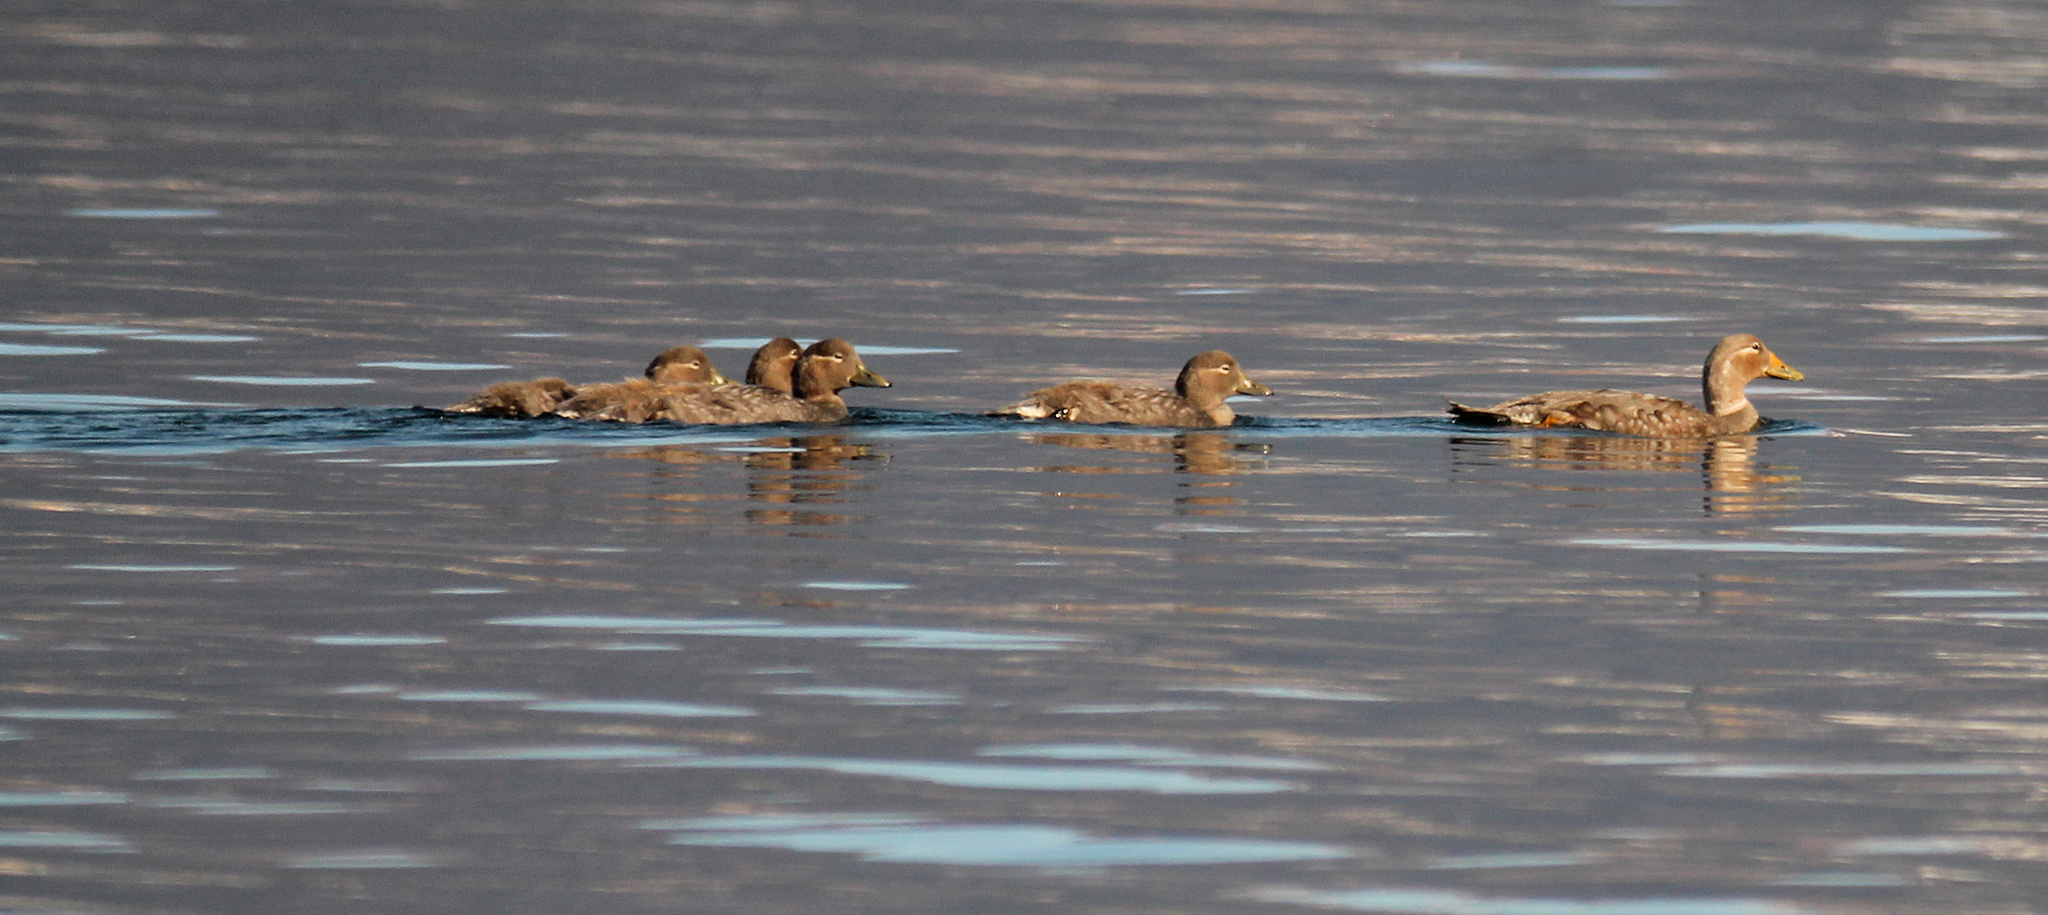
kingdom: Animalia
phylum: Chordata
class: Aves
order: Anseriformes
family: Anatidae
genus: Tachyeres
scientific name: Tachyeres patachonicus
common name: Flying steamer duck
